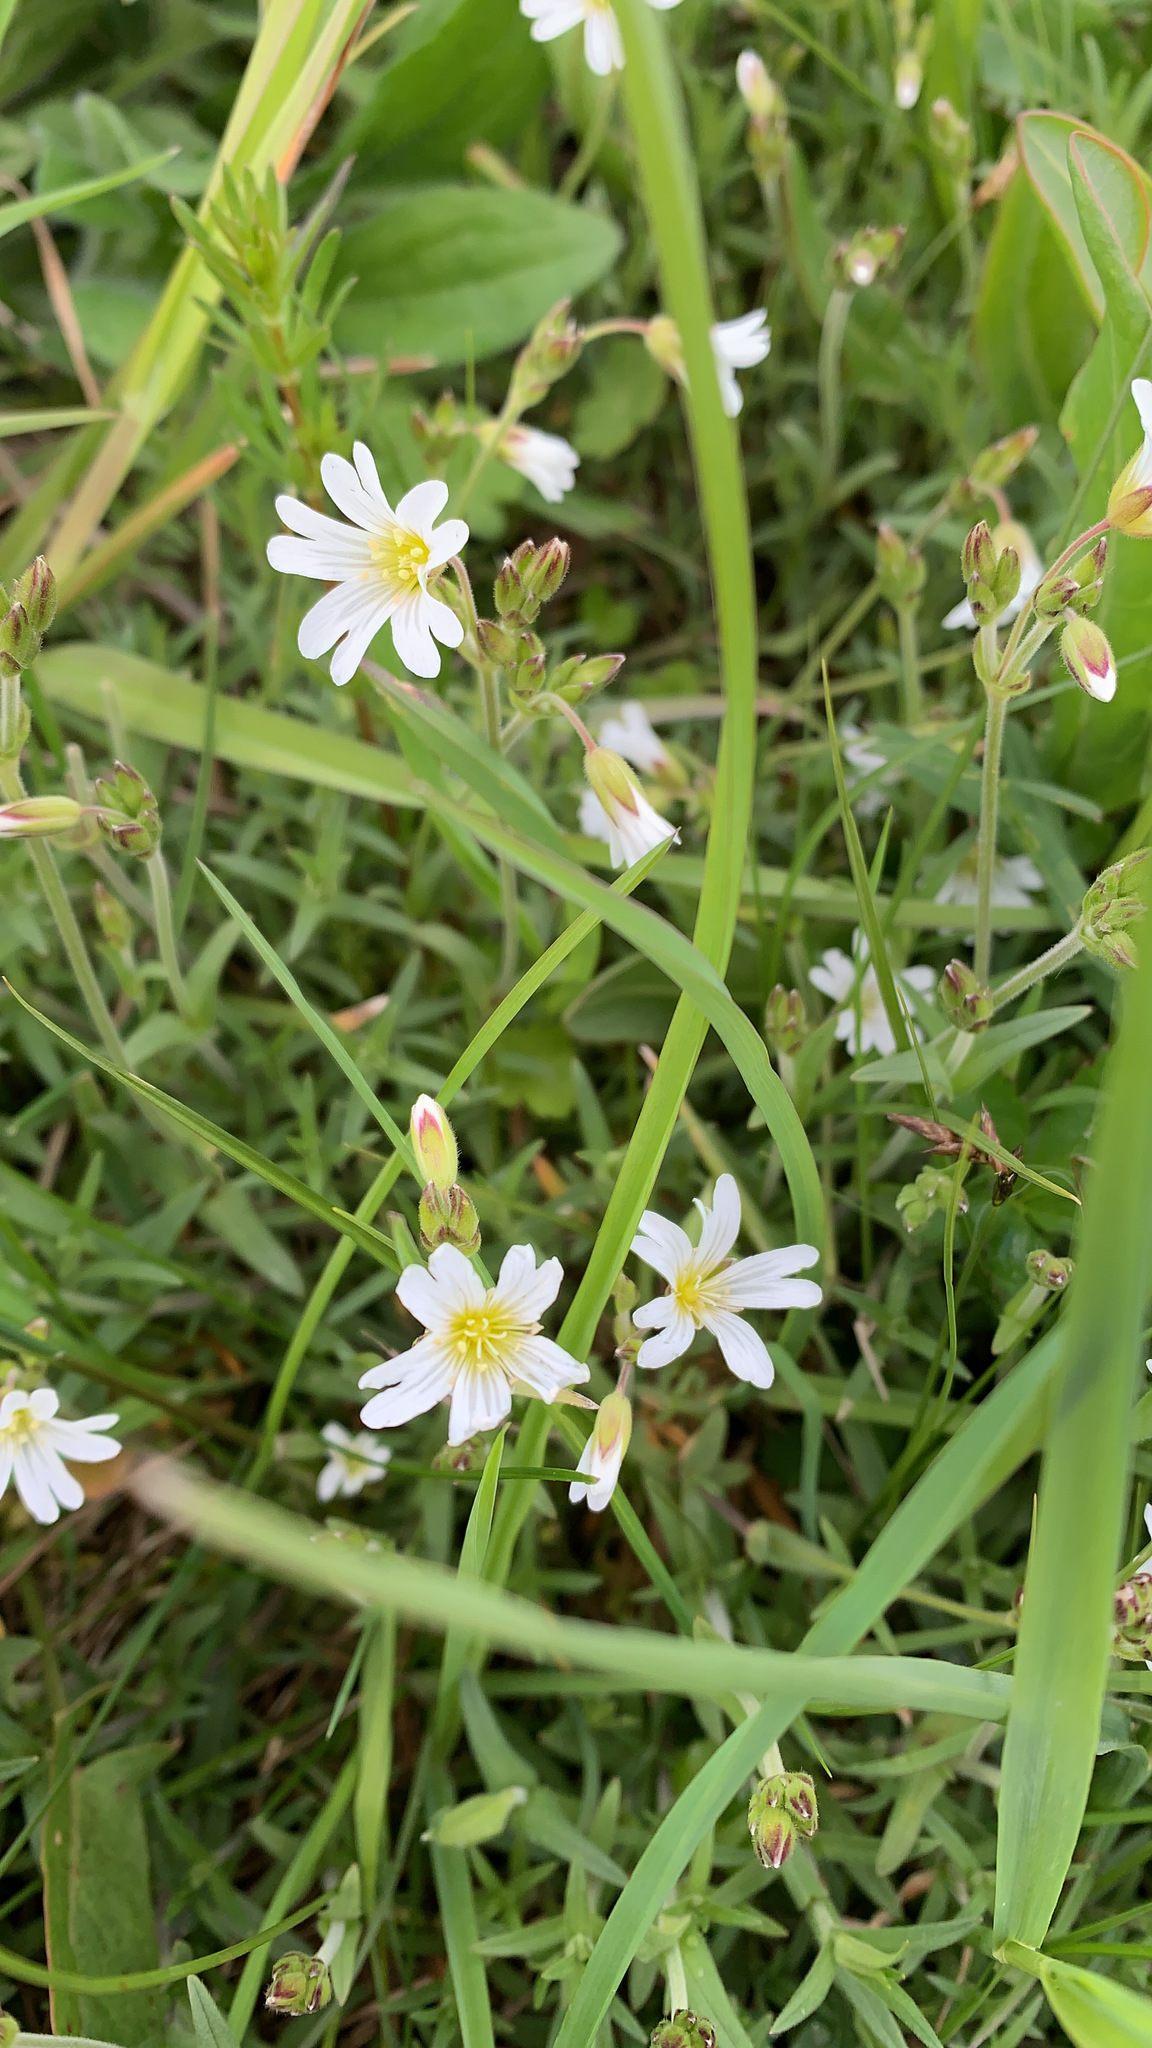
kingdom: Plantae
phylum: Tracheophyta
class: Magnoliopsida
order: Caryophyllales
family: Caryophyllaceae
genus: Cerastium
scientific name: Cerastium arvense
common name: Field mouse-ear
